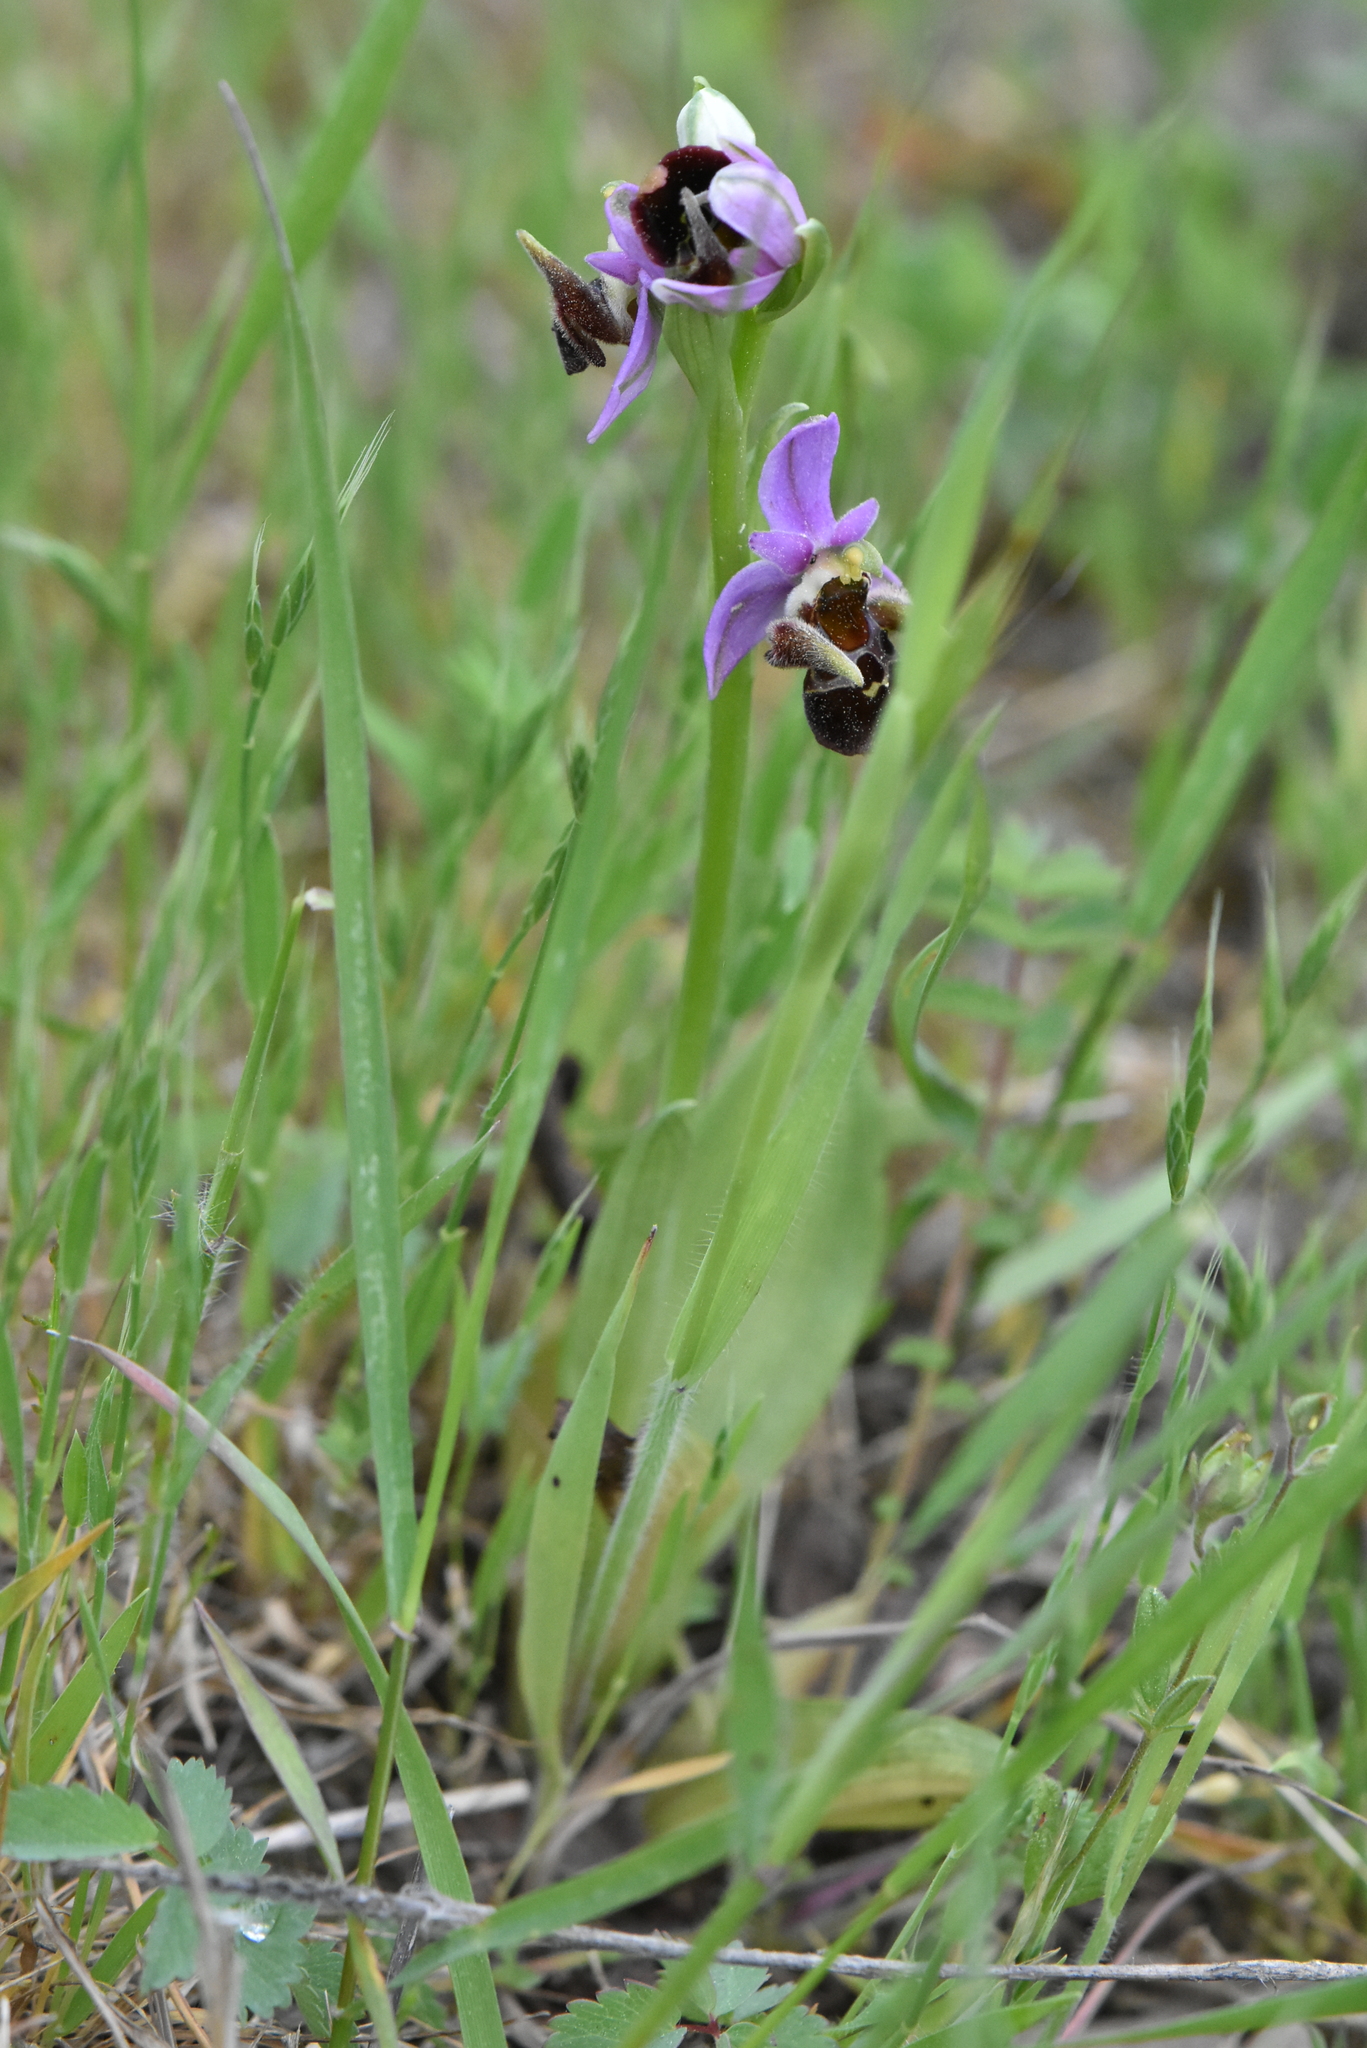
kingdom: Plantae
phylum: Tracheophyta
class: Liliopsida
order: Asparagales
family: Orchidaceae
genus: Ophrys
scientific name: Ophrys
